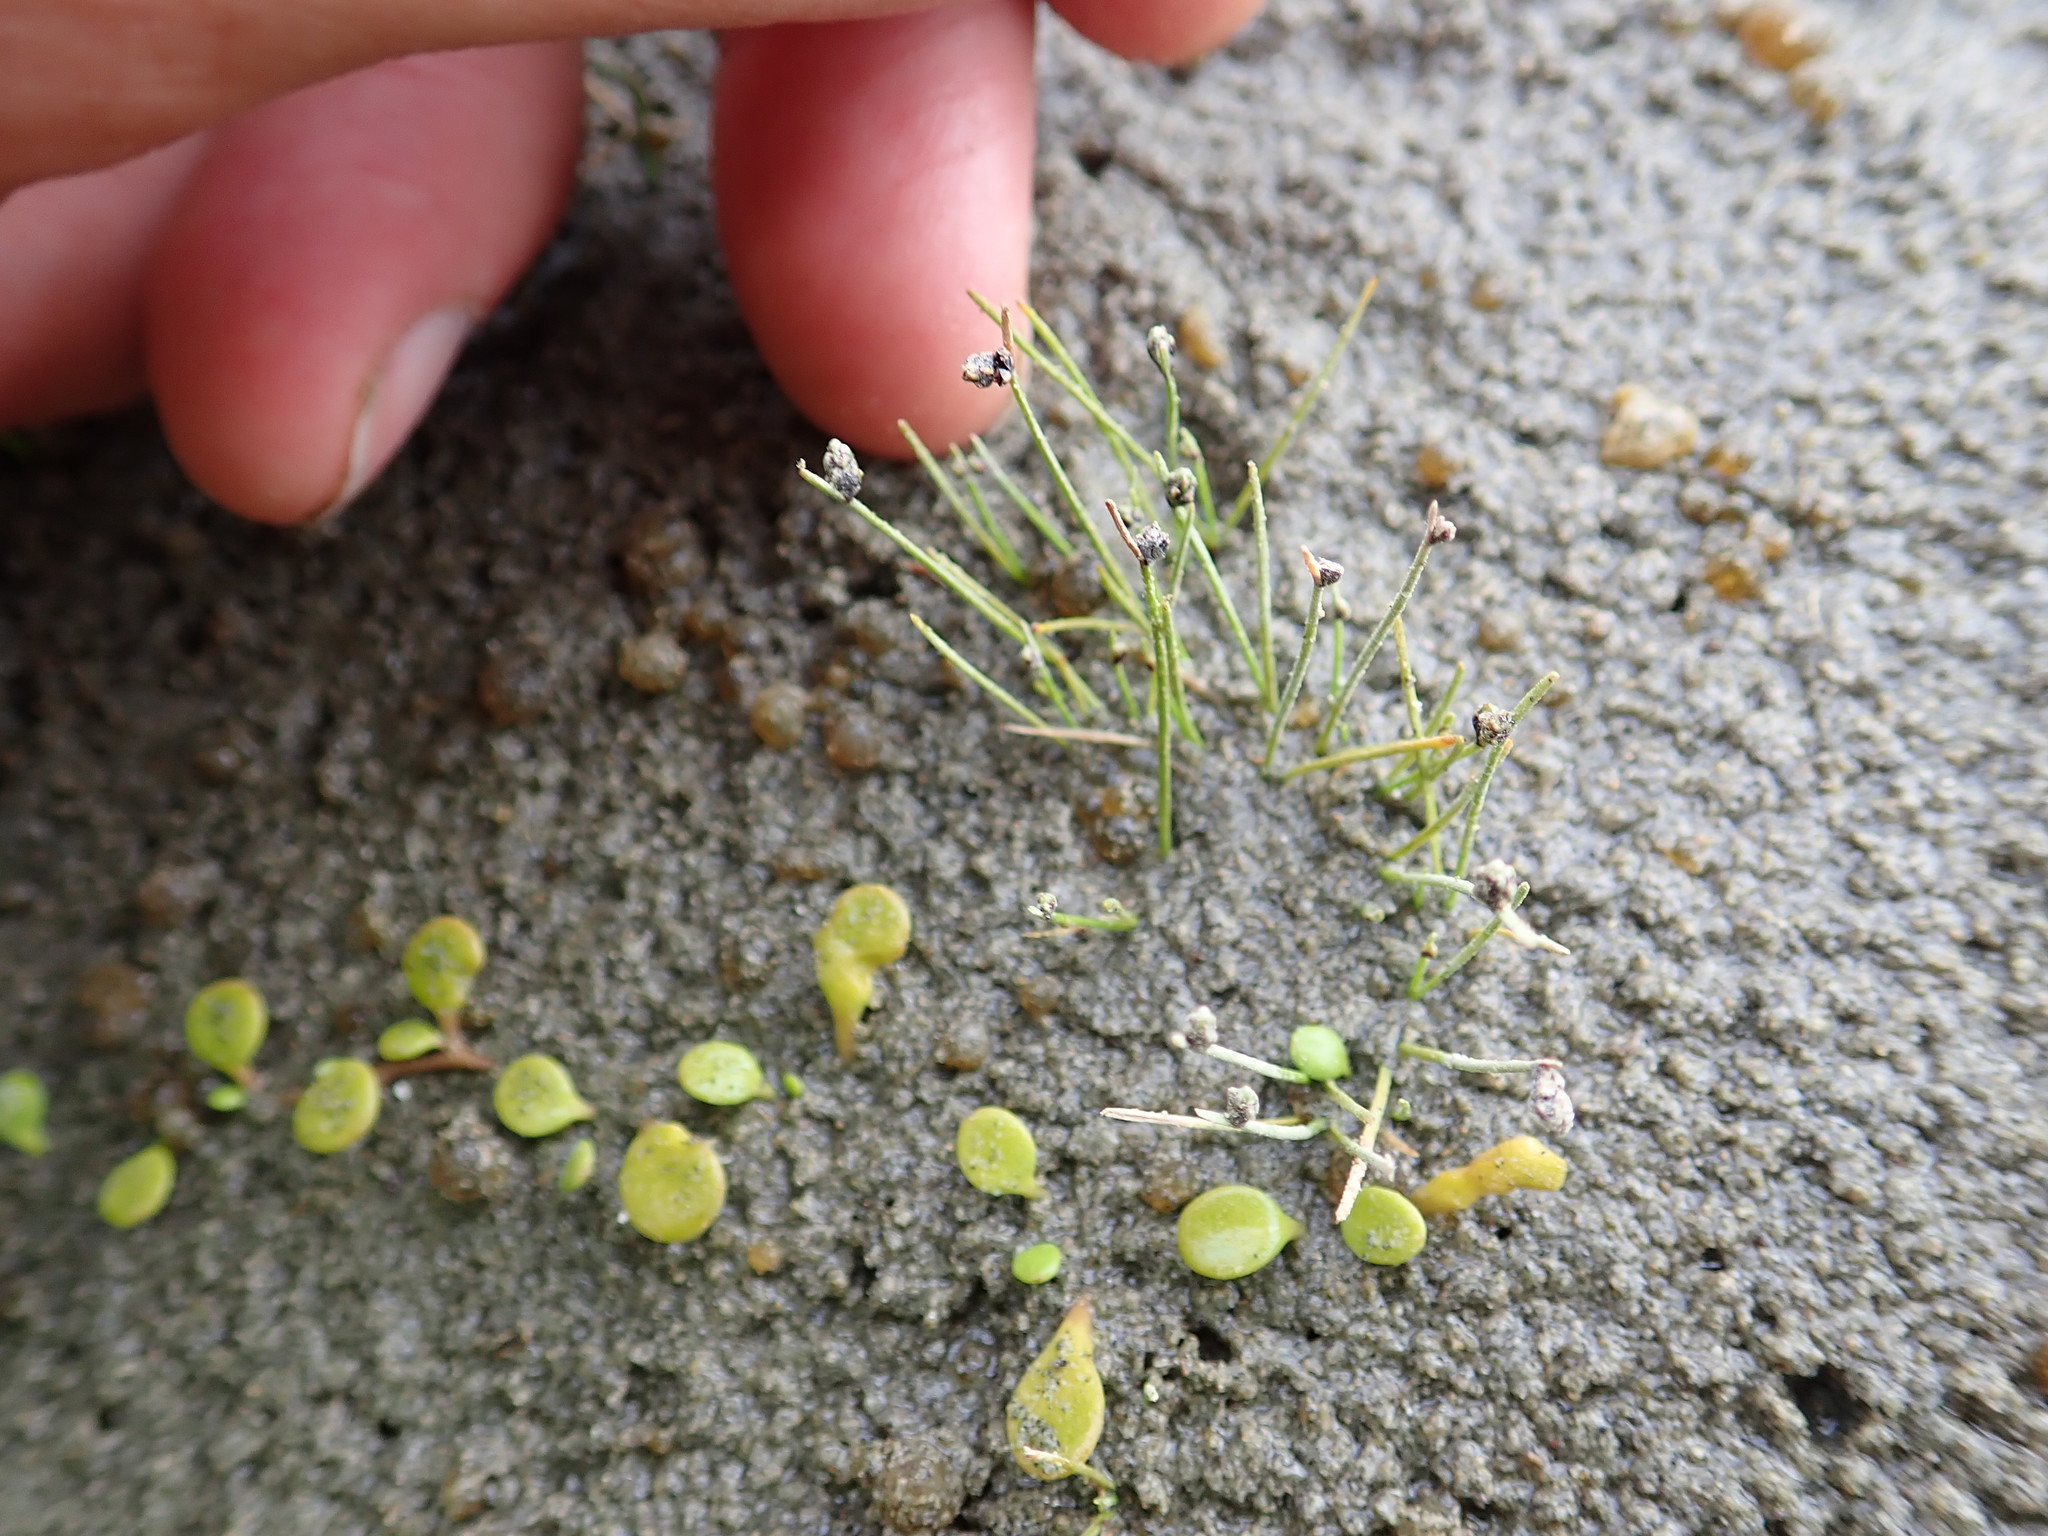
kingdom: Plantae
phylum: Tracheophyta
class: Liliopsida
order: Poales
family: Cyperaceae
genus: Isolepis
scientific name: Isolepis cernua
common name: Slender club-rush
